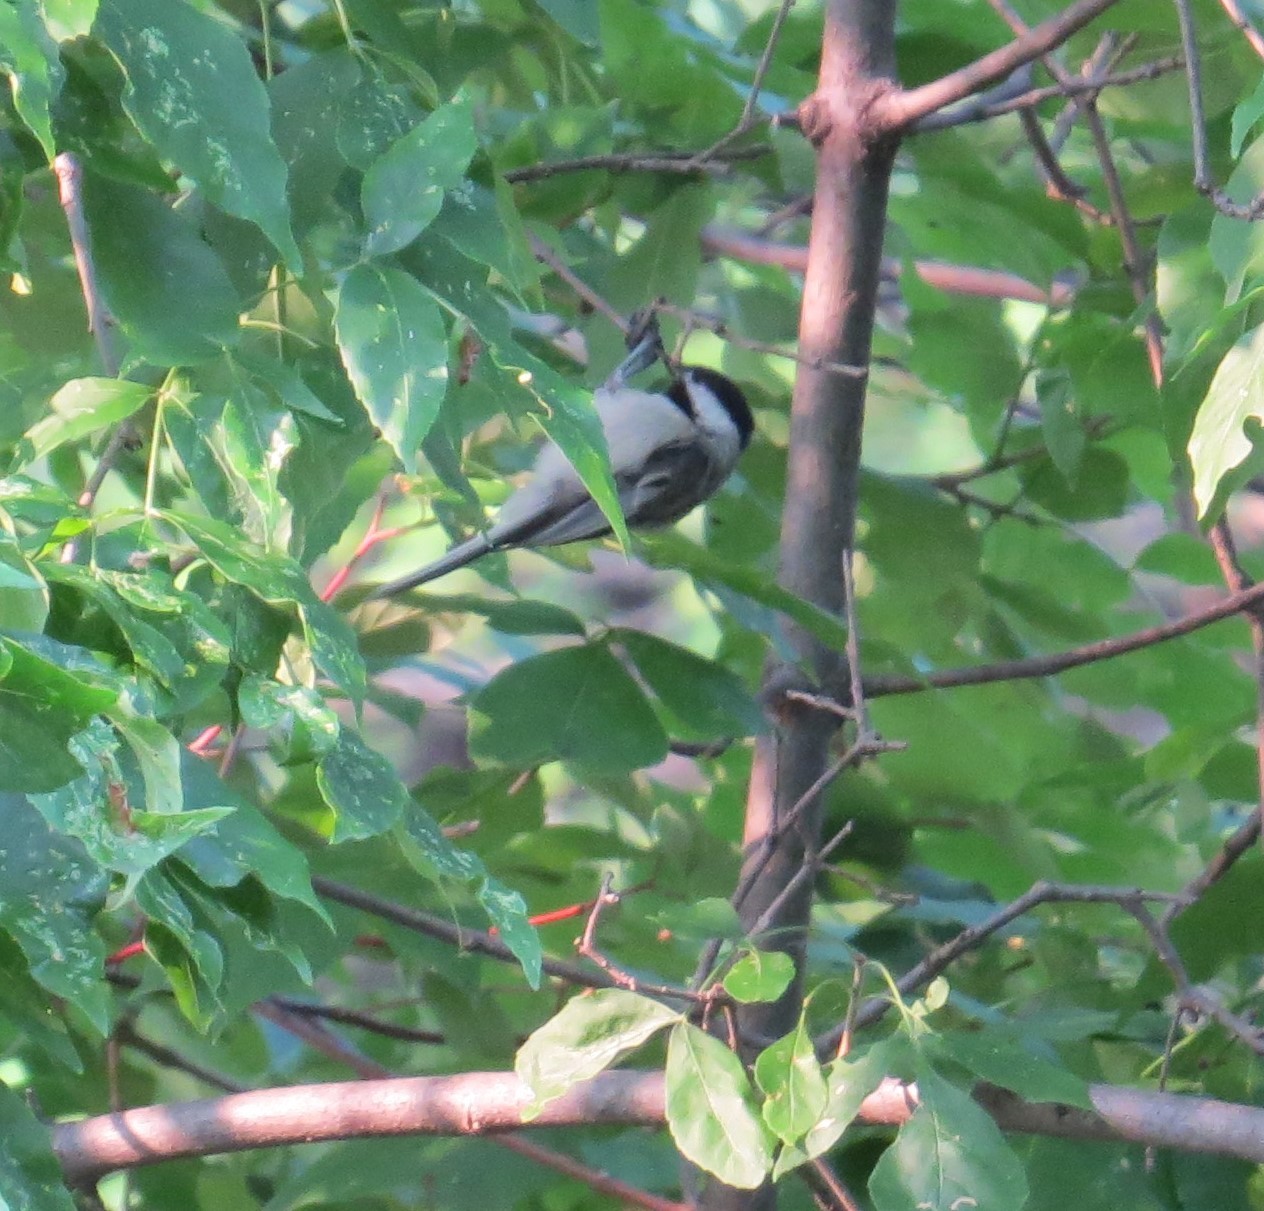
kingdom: Animalia
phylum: Chordata
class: Aves
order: Passeriformes
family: Paridae
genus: Poecile
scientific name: Poecile atricapillus
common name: Black-capped chickadee
